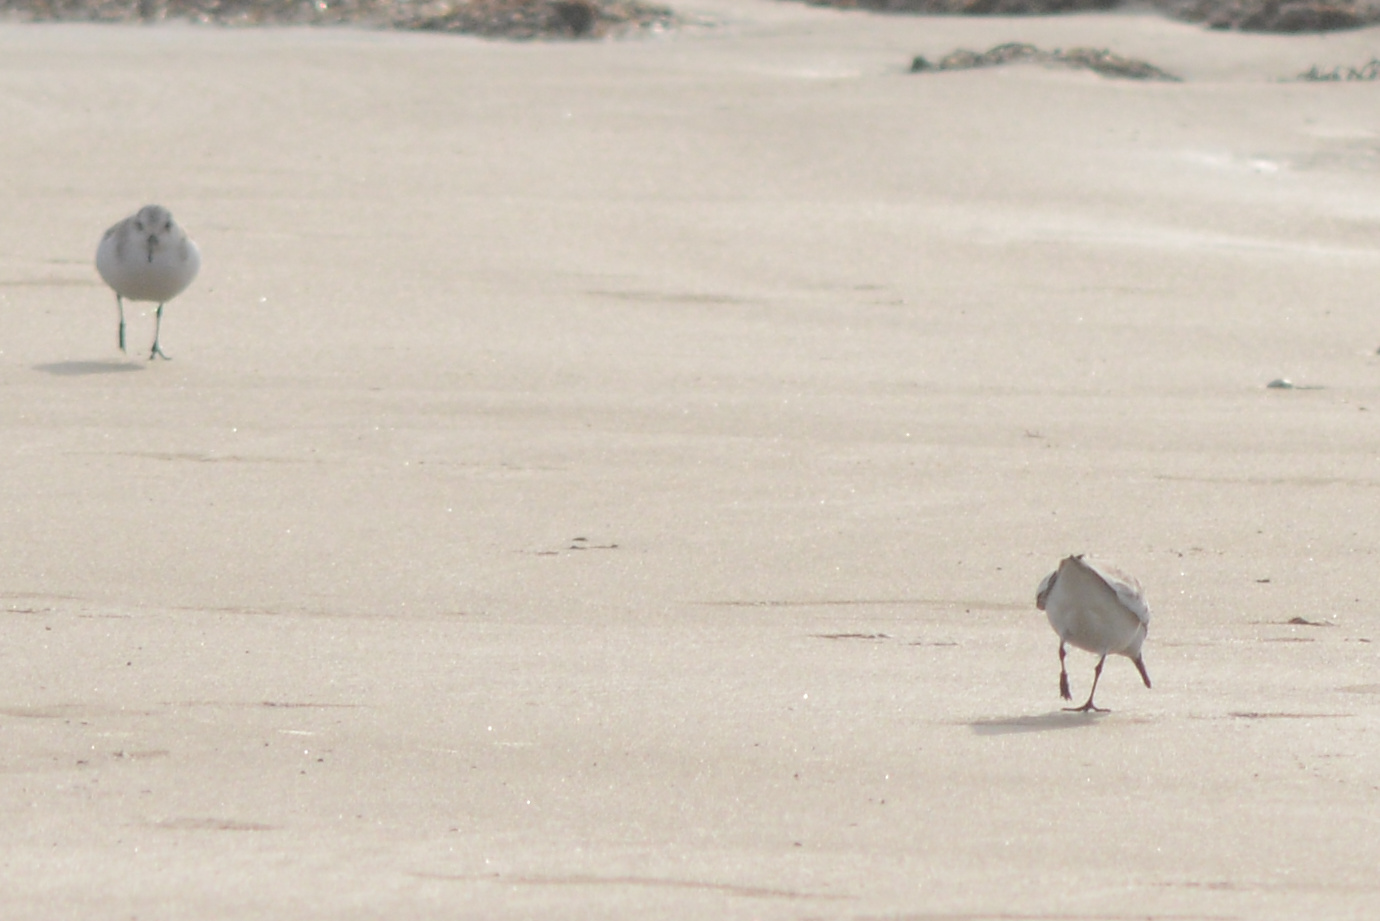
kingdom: Animalia
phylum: Chordata
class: Aves
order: Charadriiformes
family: Scolopacidae
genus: Calidris
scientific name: Calidris alba
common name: Sanderling
